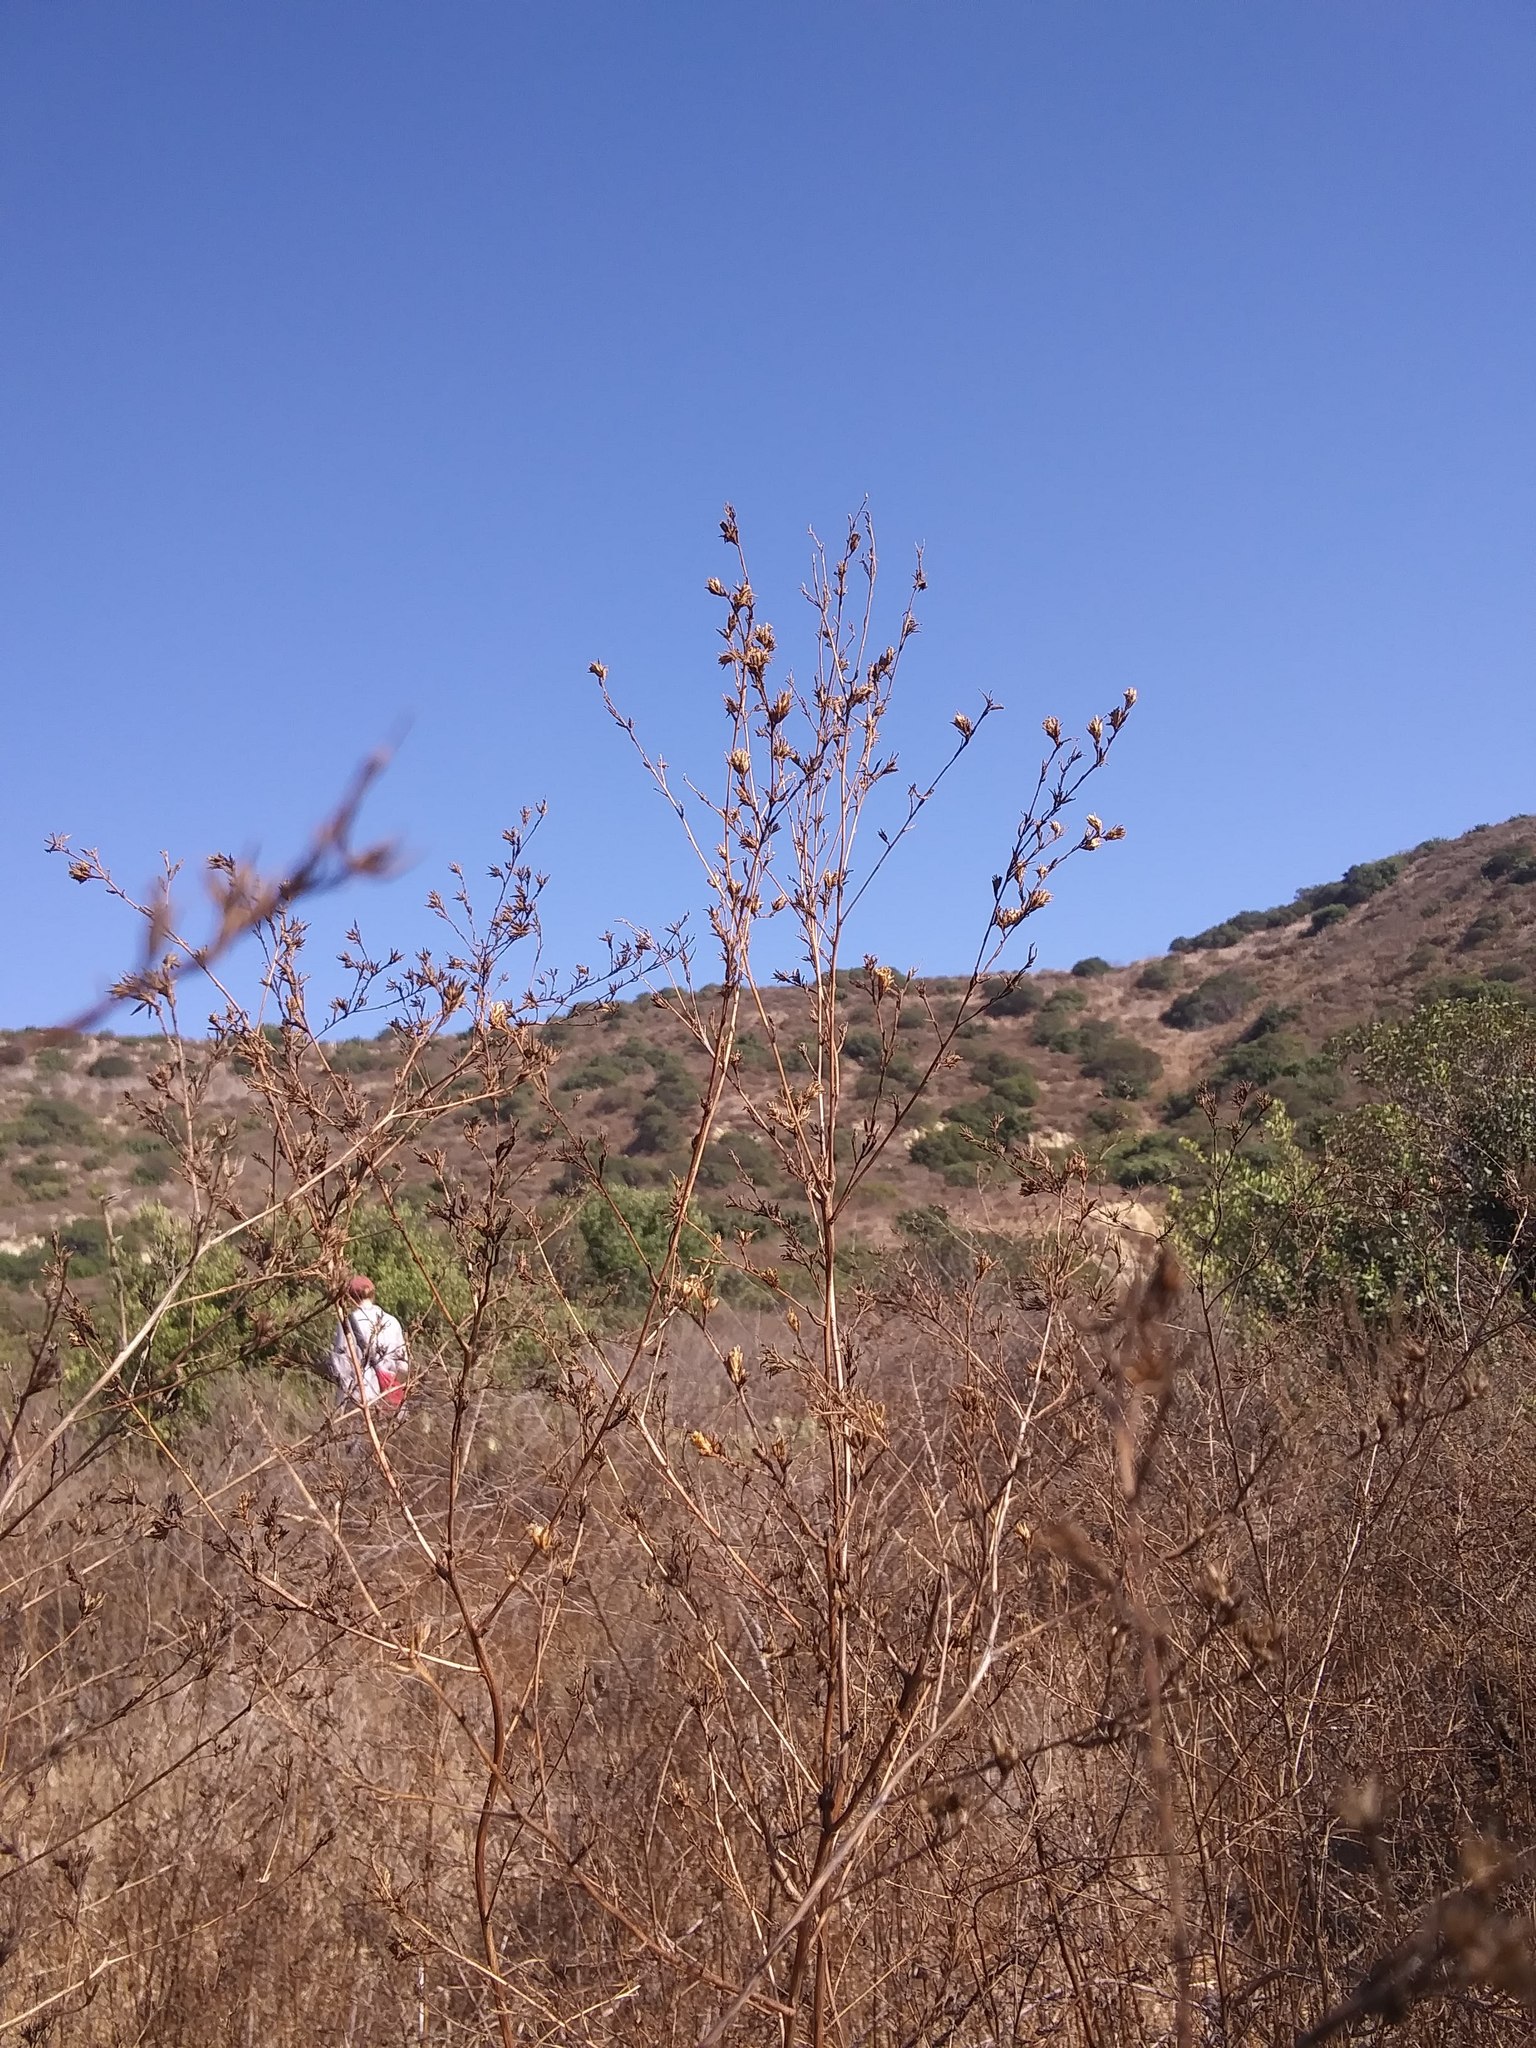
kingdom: Plantae
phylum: Tracheophyta
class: Magnoliopsida
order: Asterales
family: Asteraceae
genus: Deinandra
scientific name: Deinandra fasciculata
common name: Clustered tarweed
